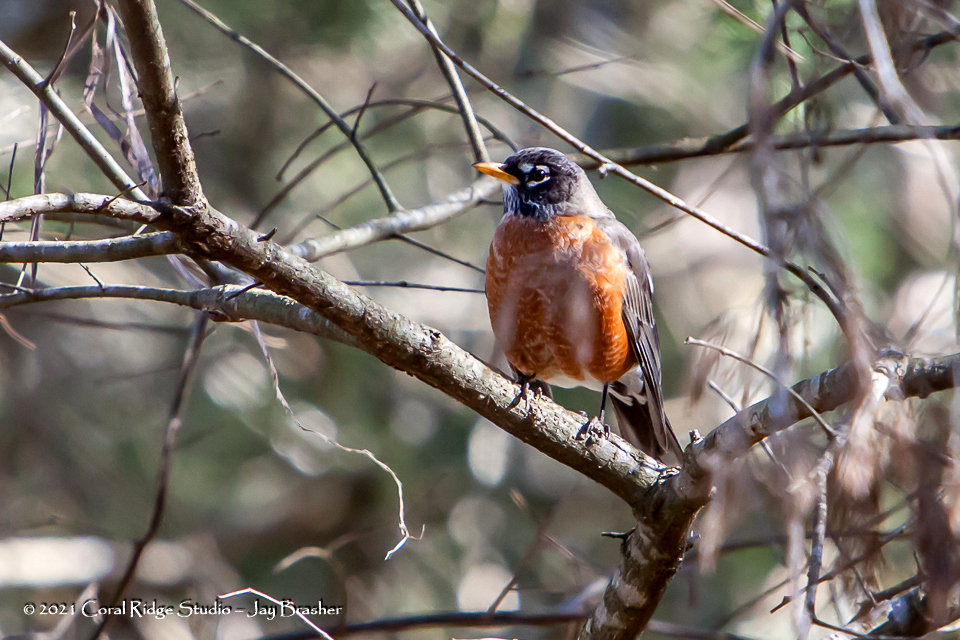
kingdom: Animalia
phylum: Chordata
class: Aves
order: Passeriformes
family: Turdidae
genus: Turdus
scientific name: Turdus migratorius
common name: American robin
